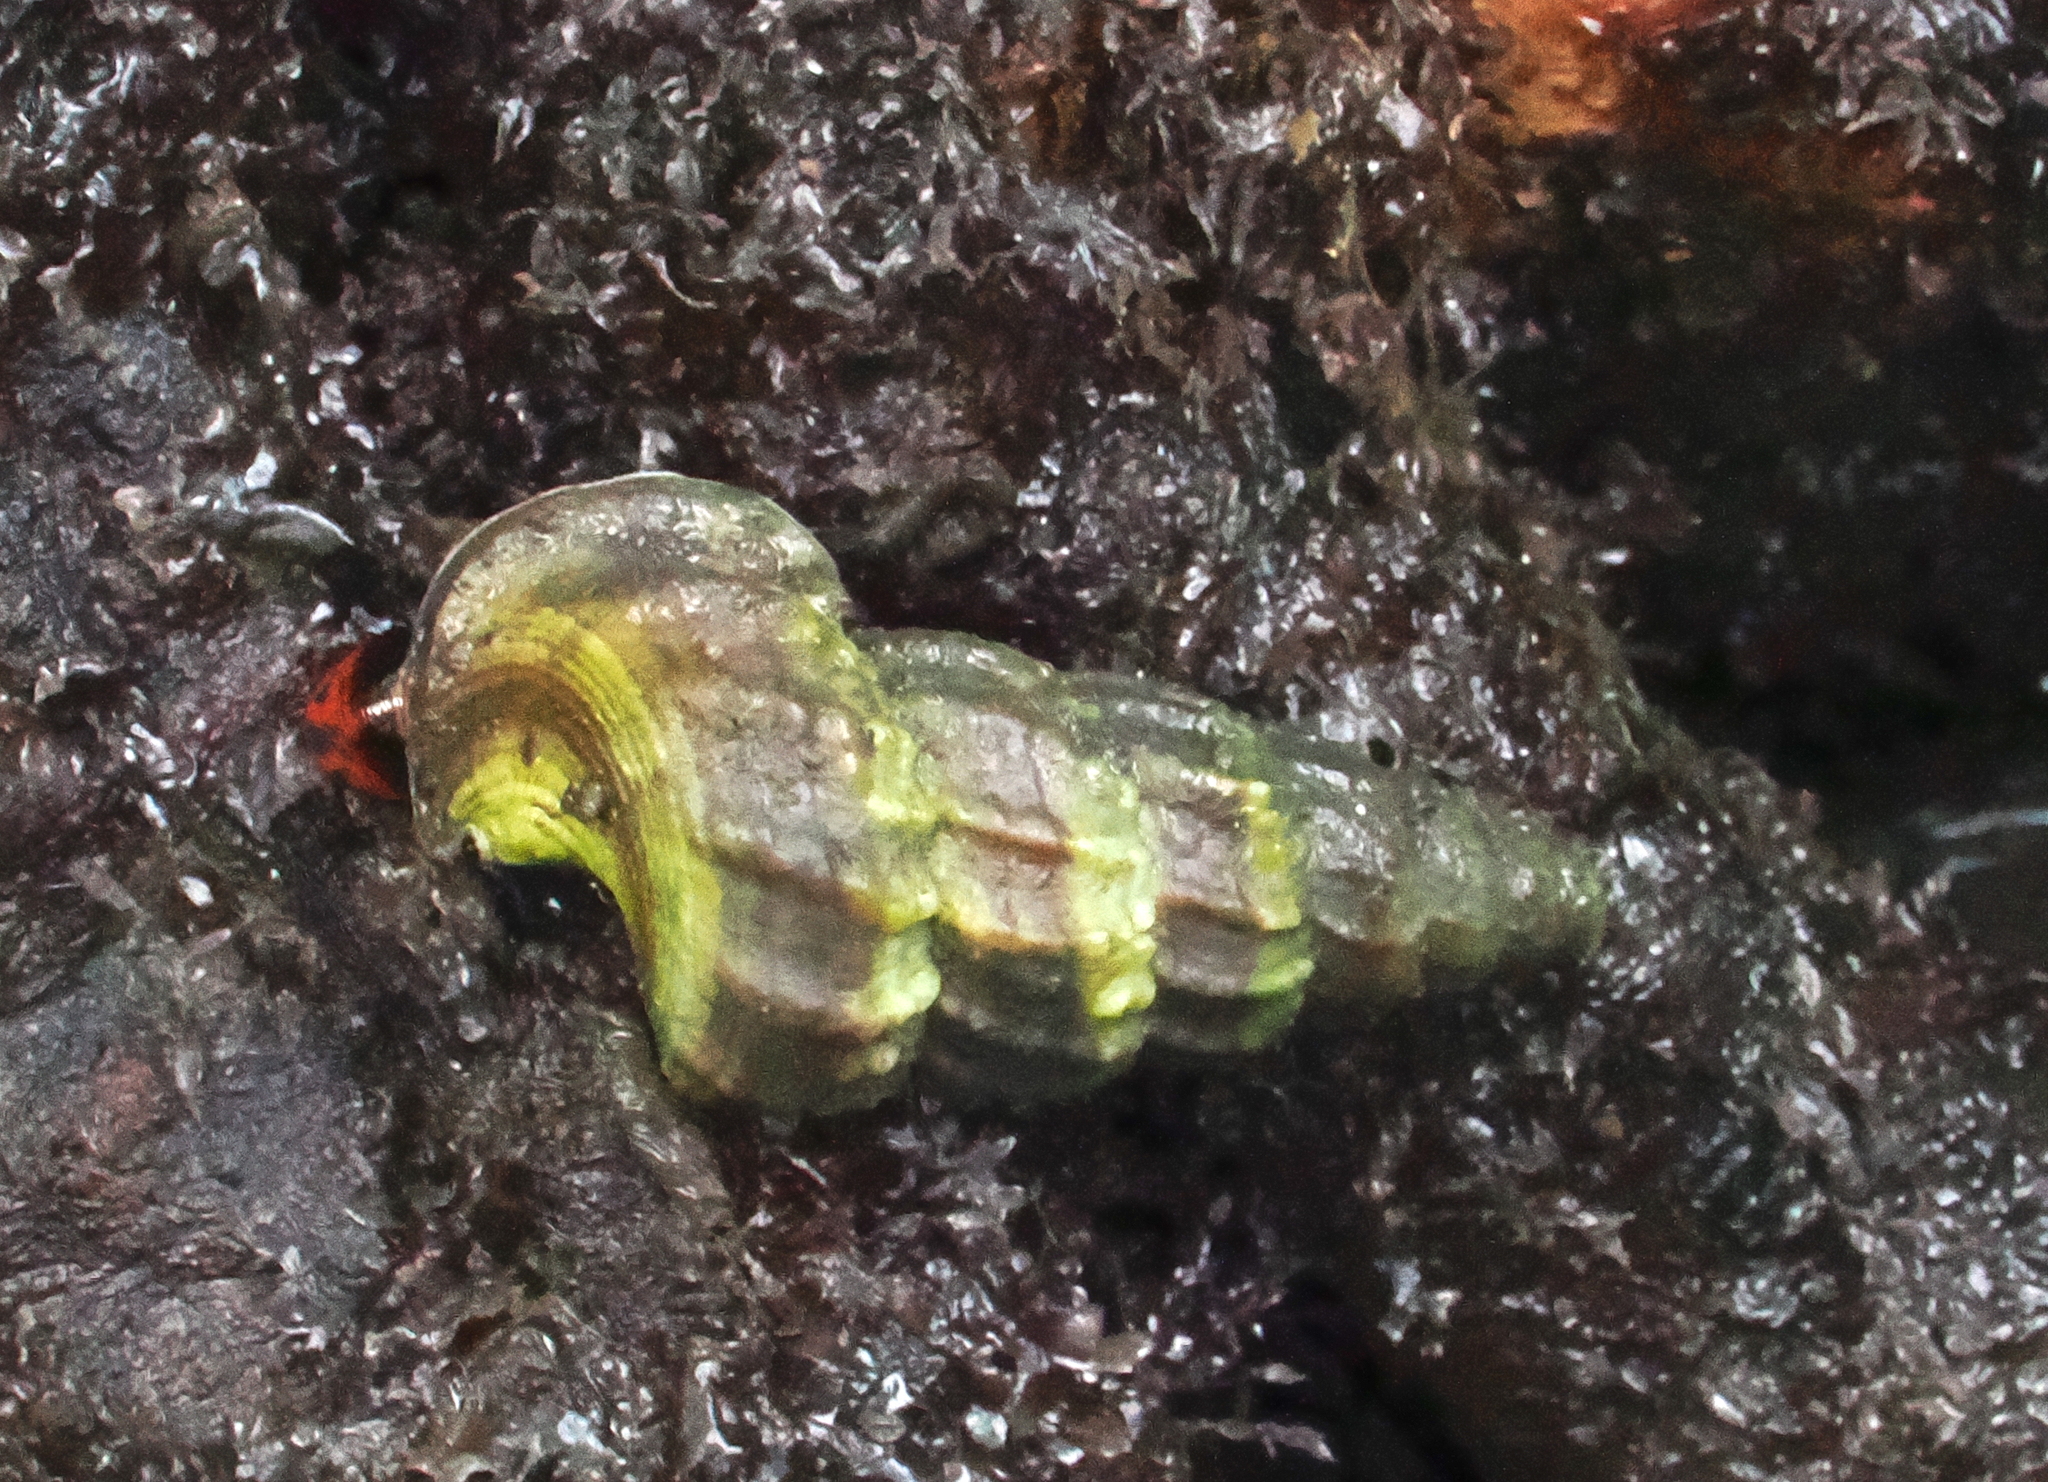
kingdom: Animalia
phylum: Mollusca
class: Gastropoda
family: Potamididae
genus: Cerithidea
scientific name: Cerithidea obtusa
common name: Mud creeper
